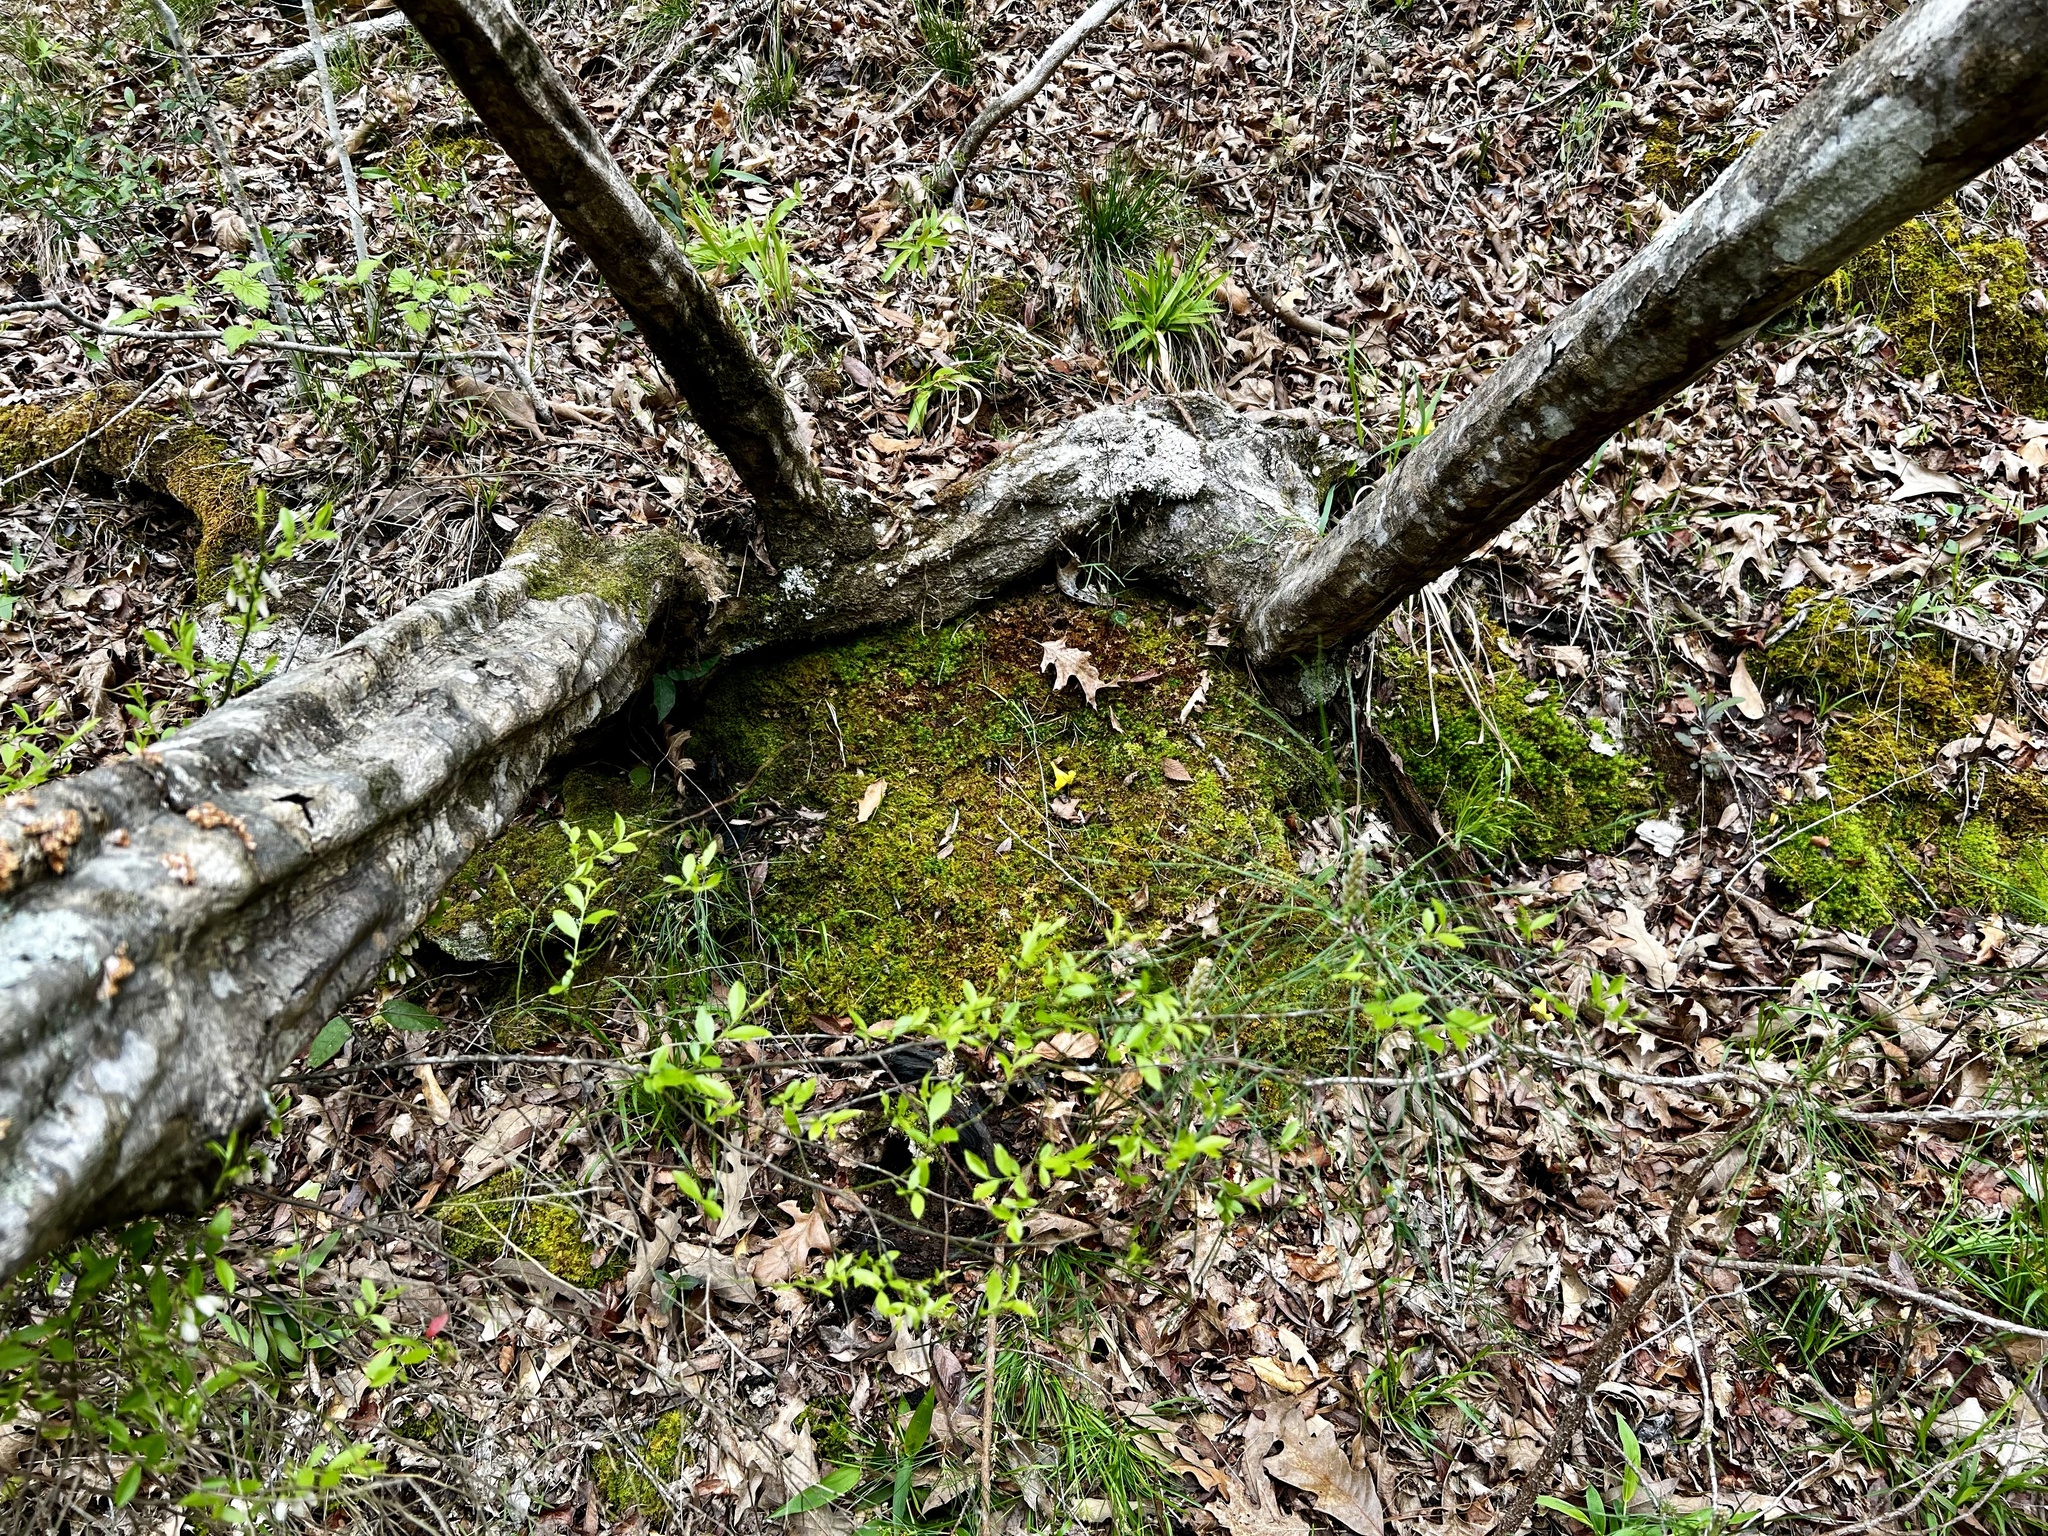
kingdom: Plantae
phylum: Tracheophyta
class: Magnoliopsida
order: Fagales
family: Betulaceae
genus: Carpinus
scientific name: Carpinus caroliniana
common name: American hornbeam
